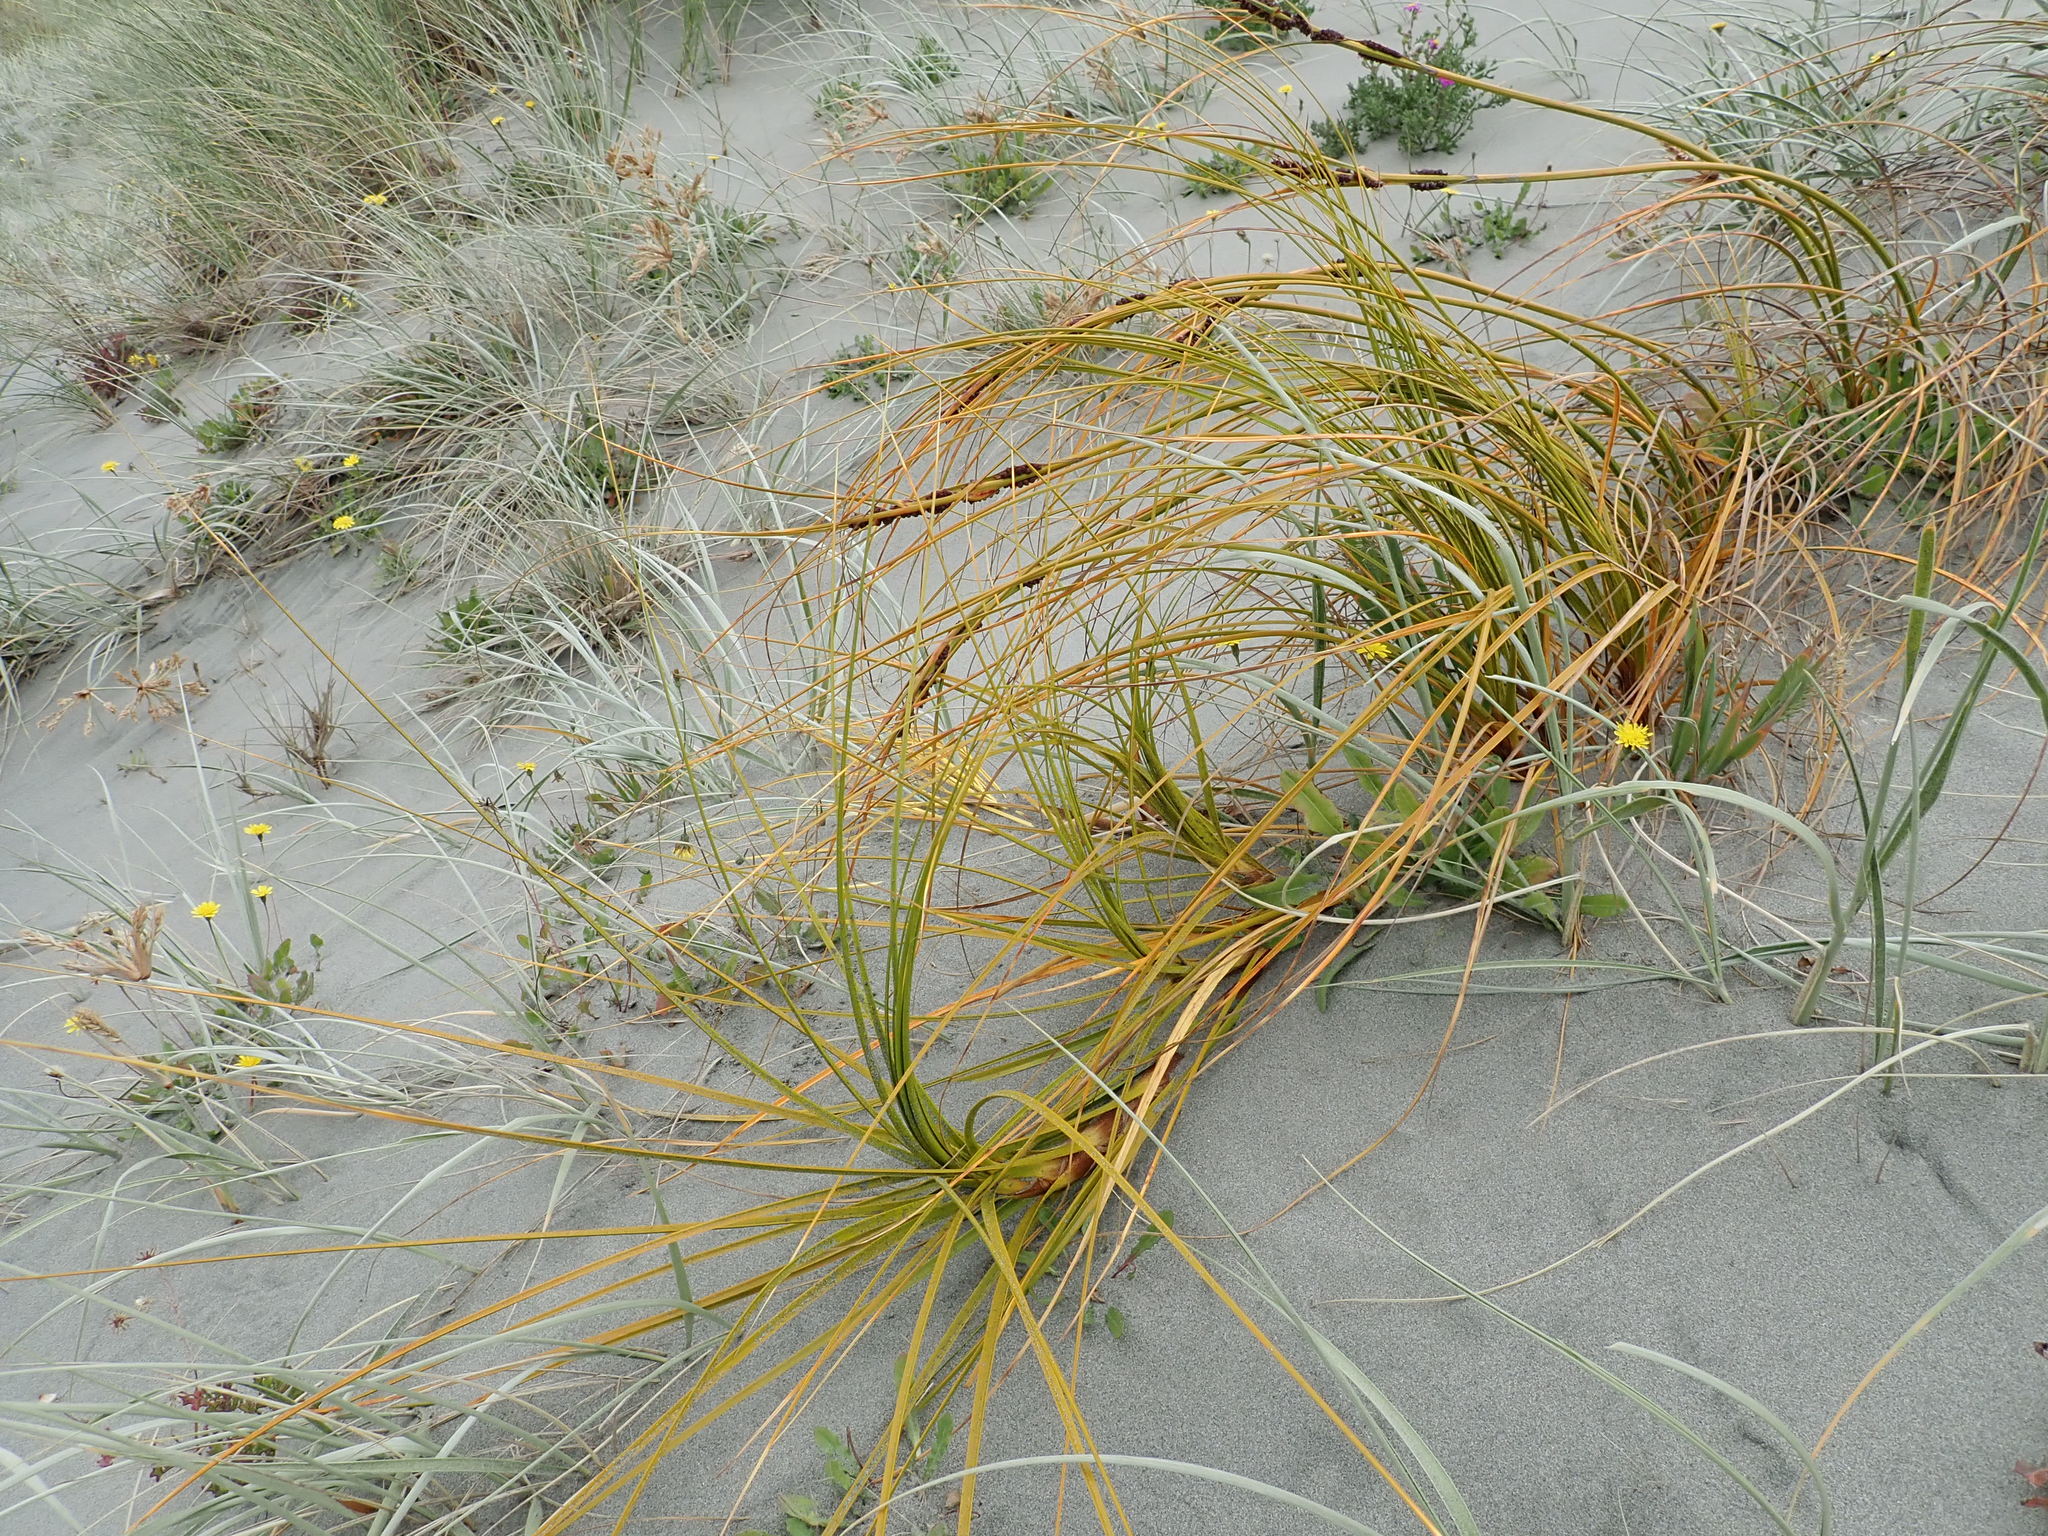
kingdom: Plantae
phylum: Tracheophyta
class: Liliopsida
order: Poales
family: Cyperaceae
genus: Ficinia
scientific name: Ficinia spiralis
